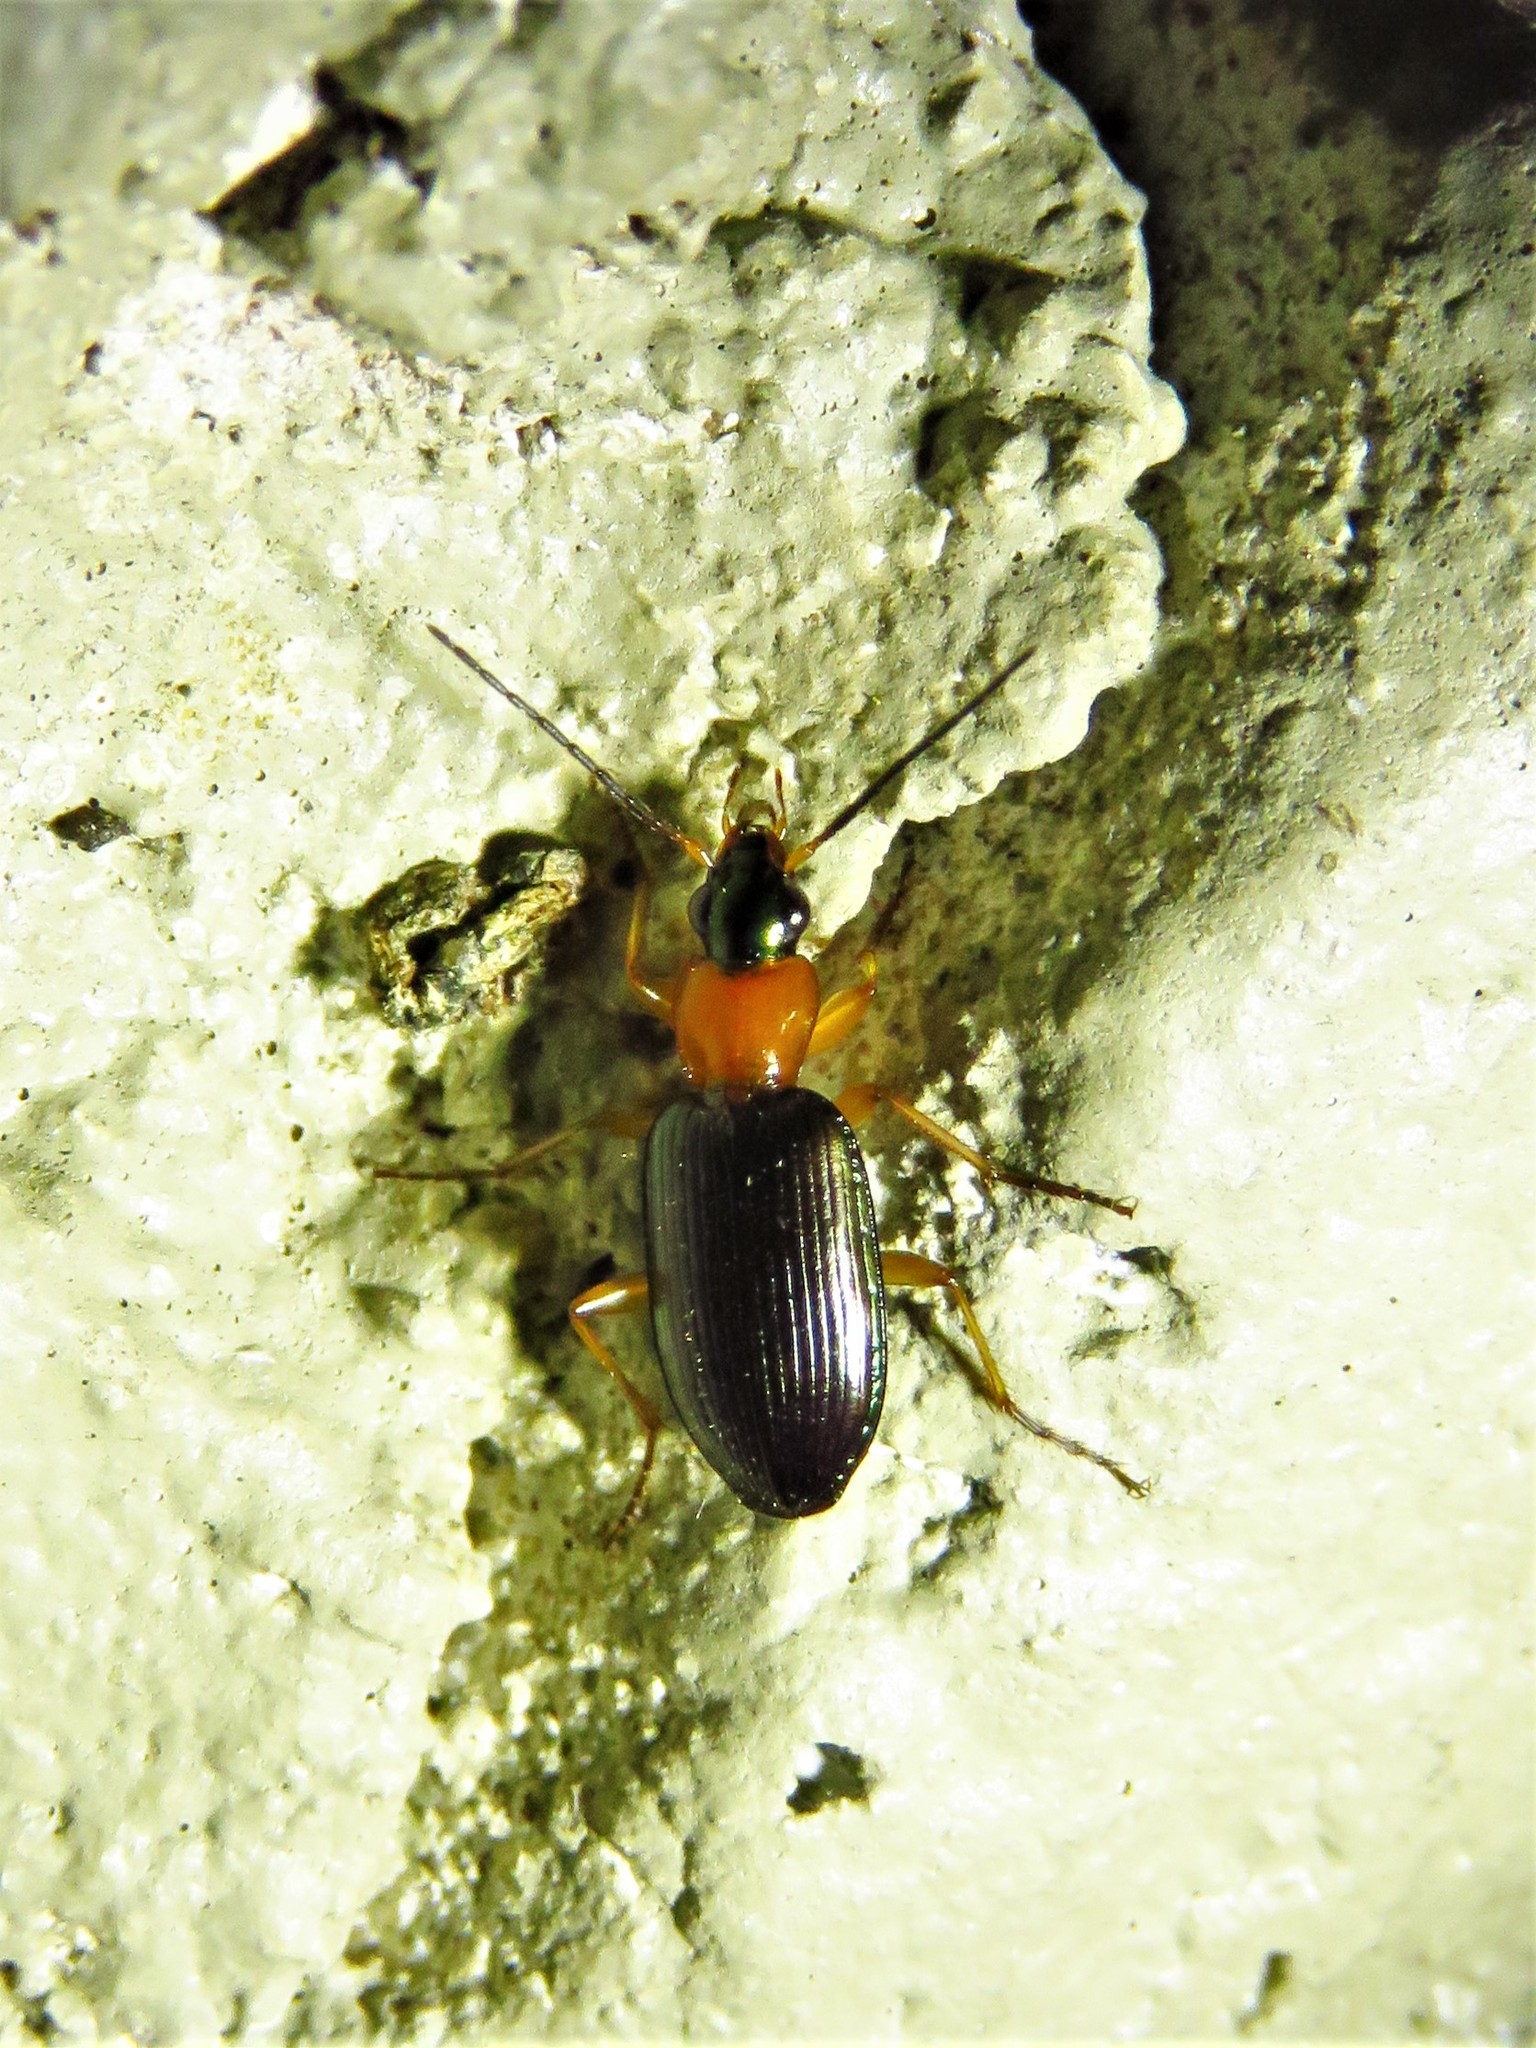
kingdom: Animalia
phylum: Arthropoda
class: Insecta
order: Coleoptera
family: Carabidae
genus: Agonum
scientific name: Agonum decorum
